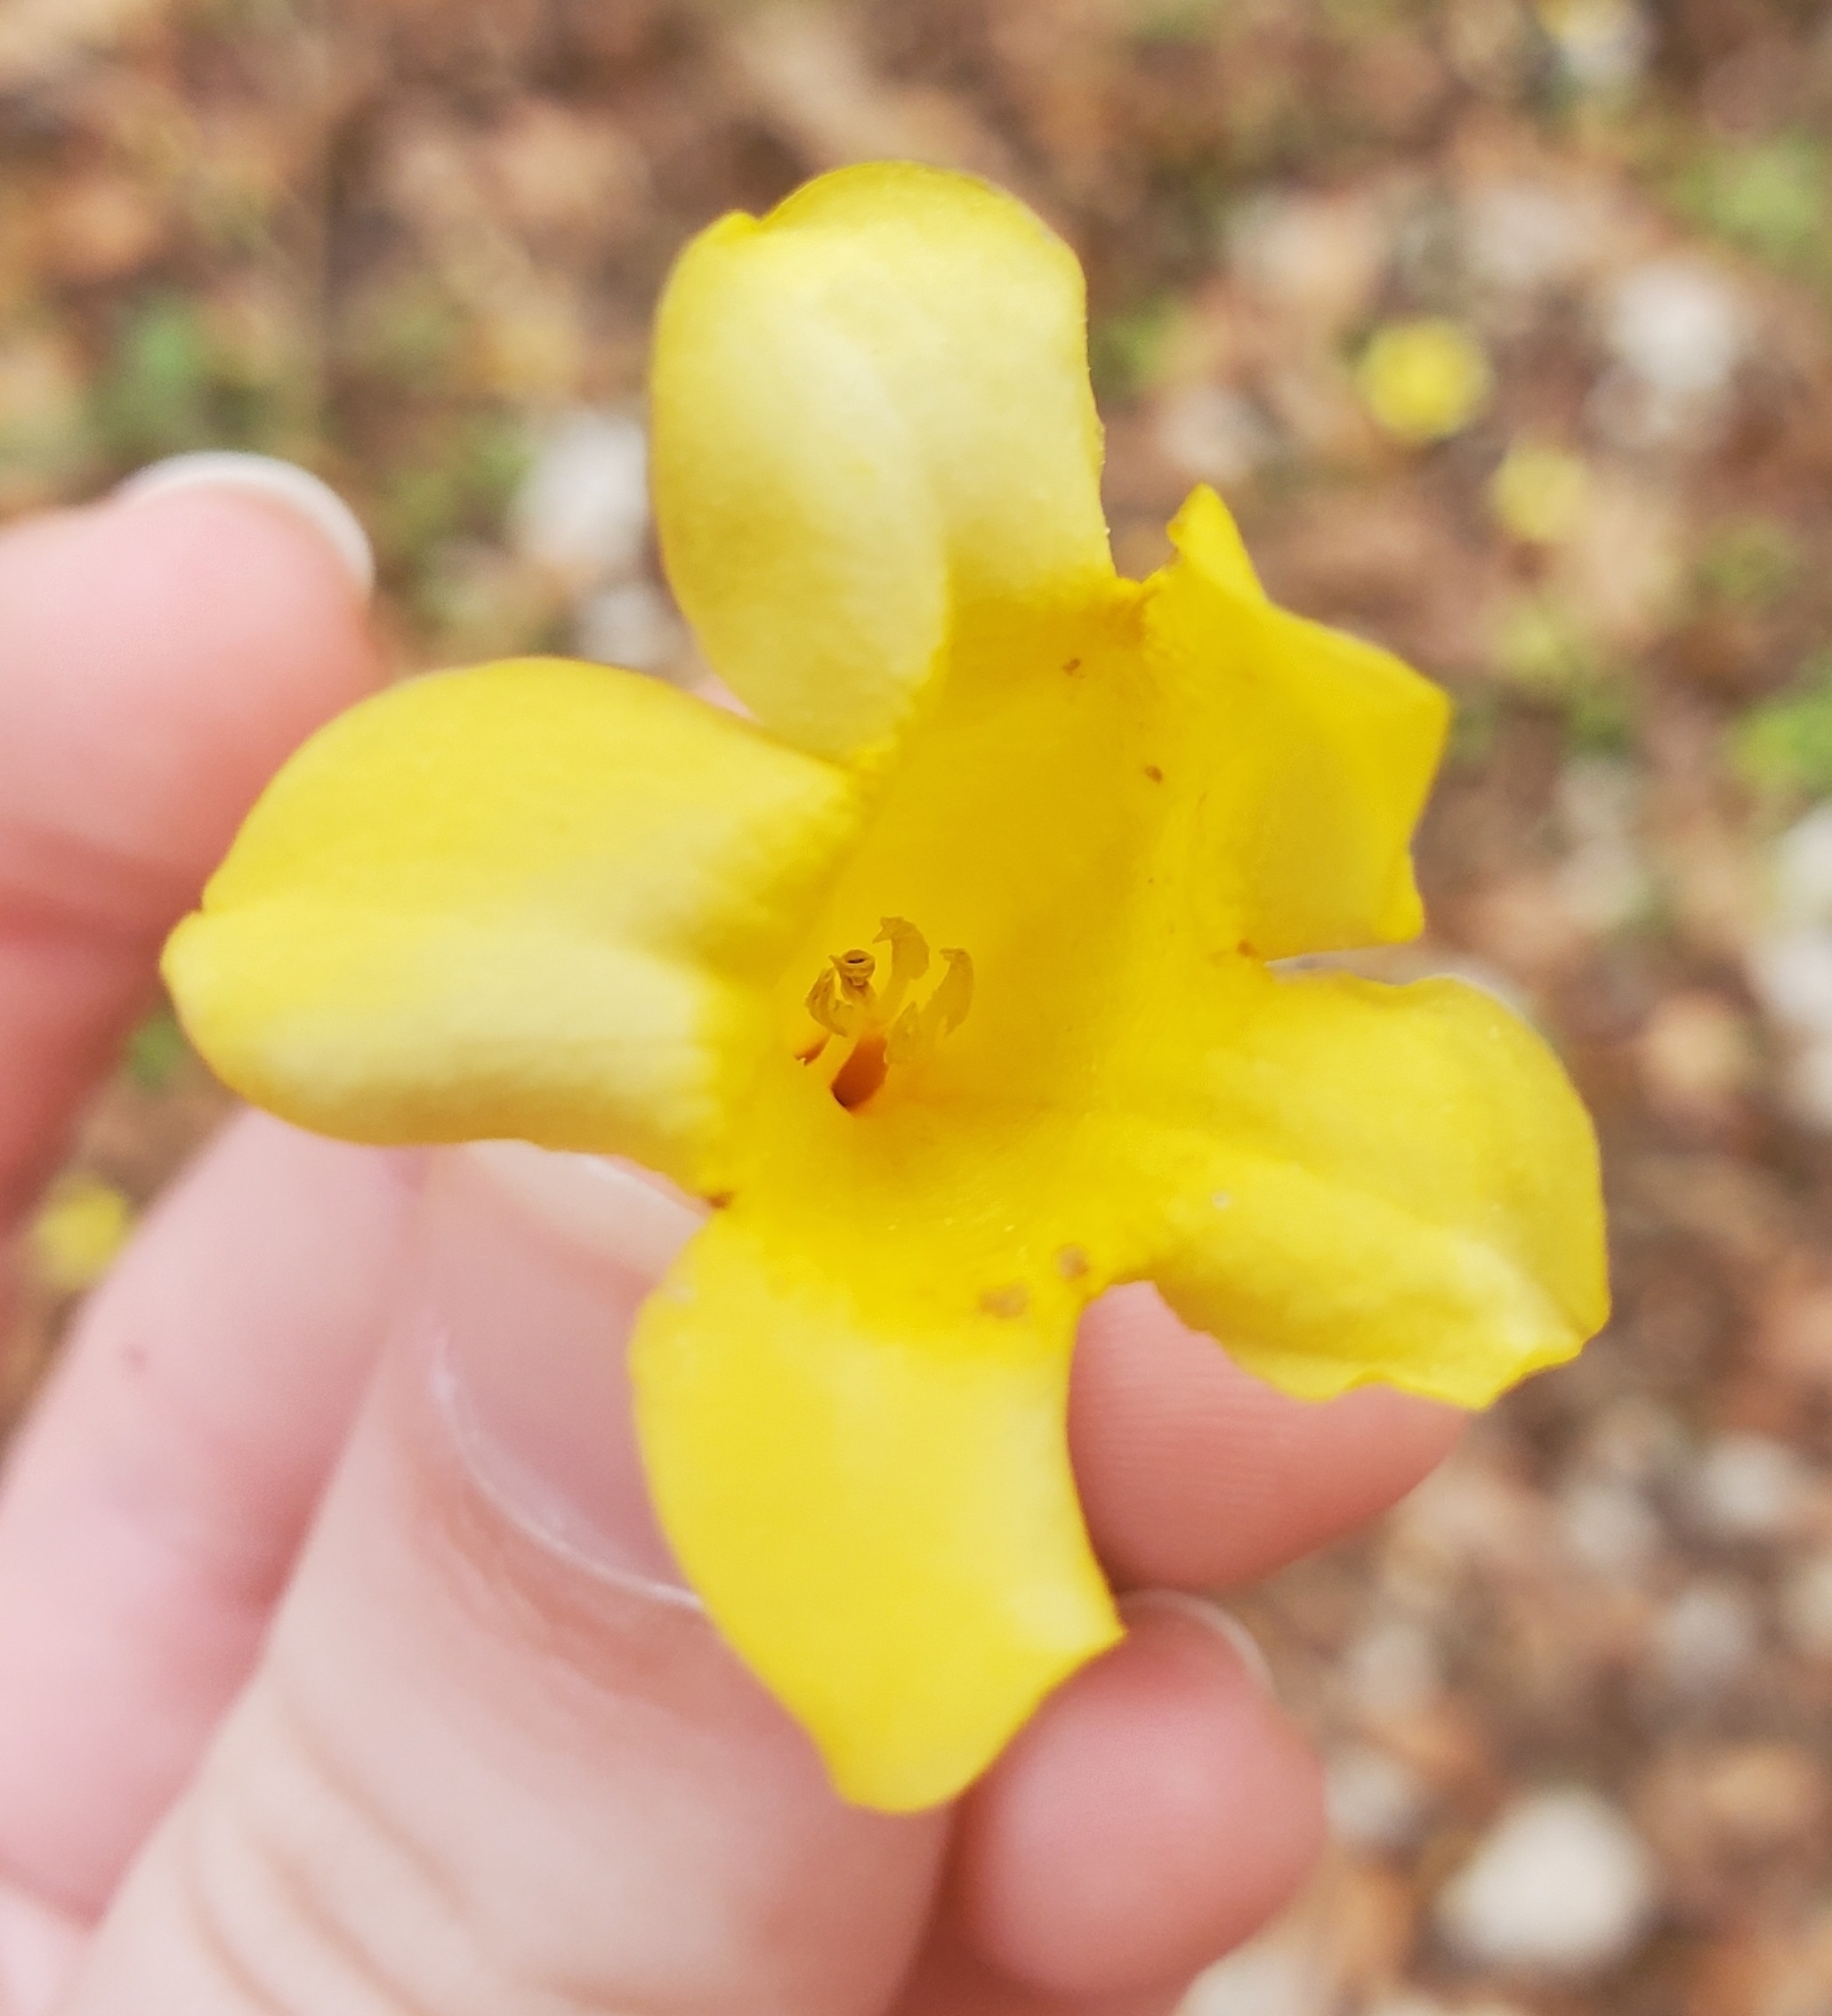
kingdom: Plantae
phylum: Tracheophyta
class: Magnoliopsida
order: Gentianales
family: Gelsemiaceae
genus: Gelsemium
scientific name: Gelsemium sempervirens
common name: Carolina-jasmine
